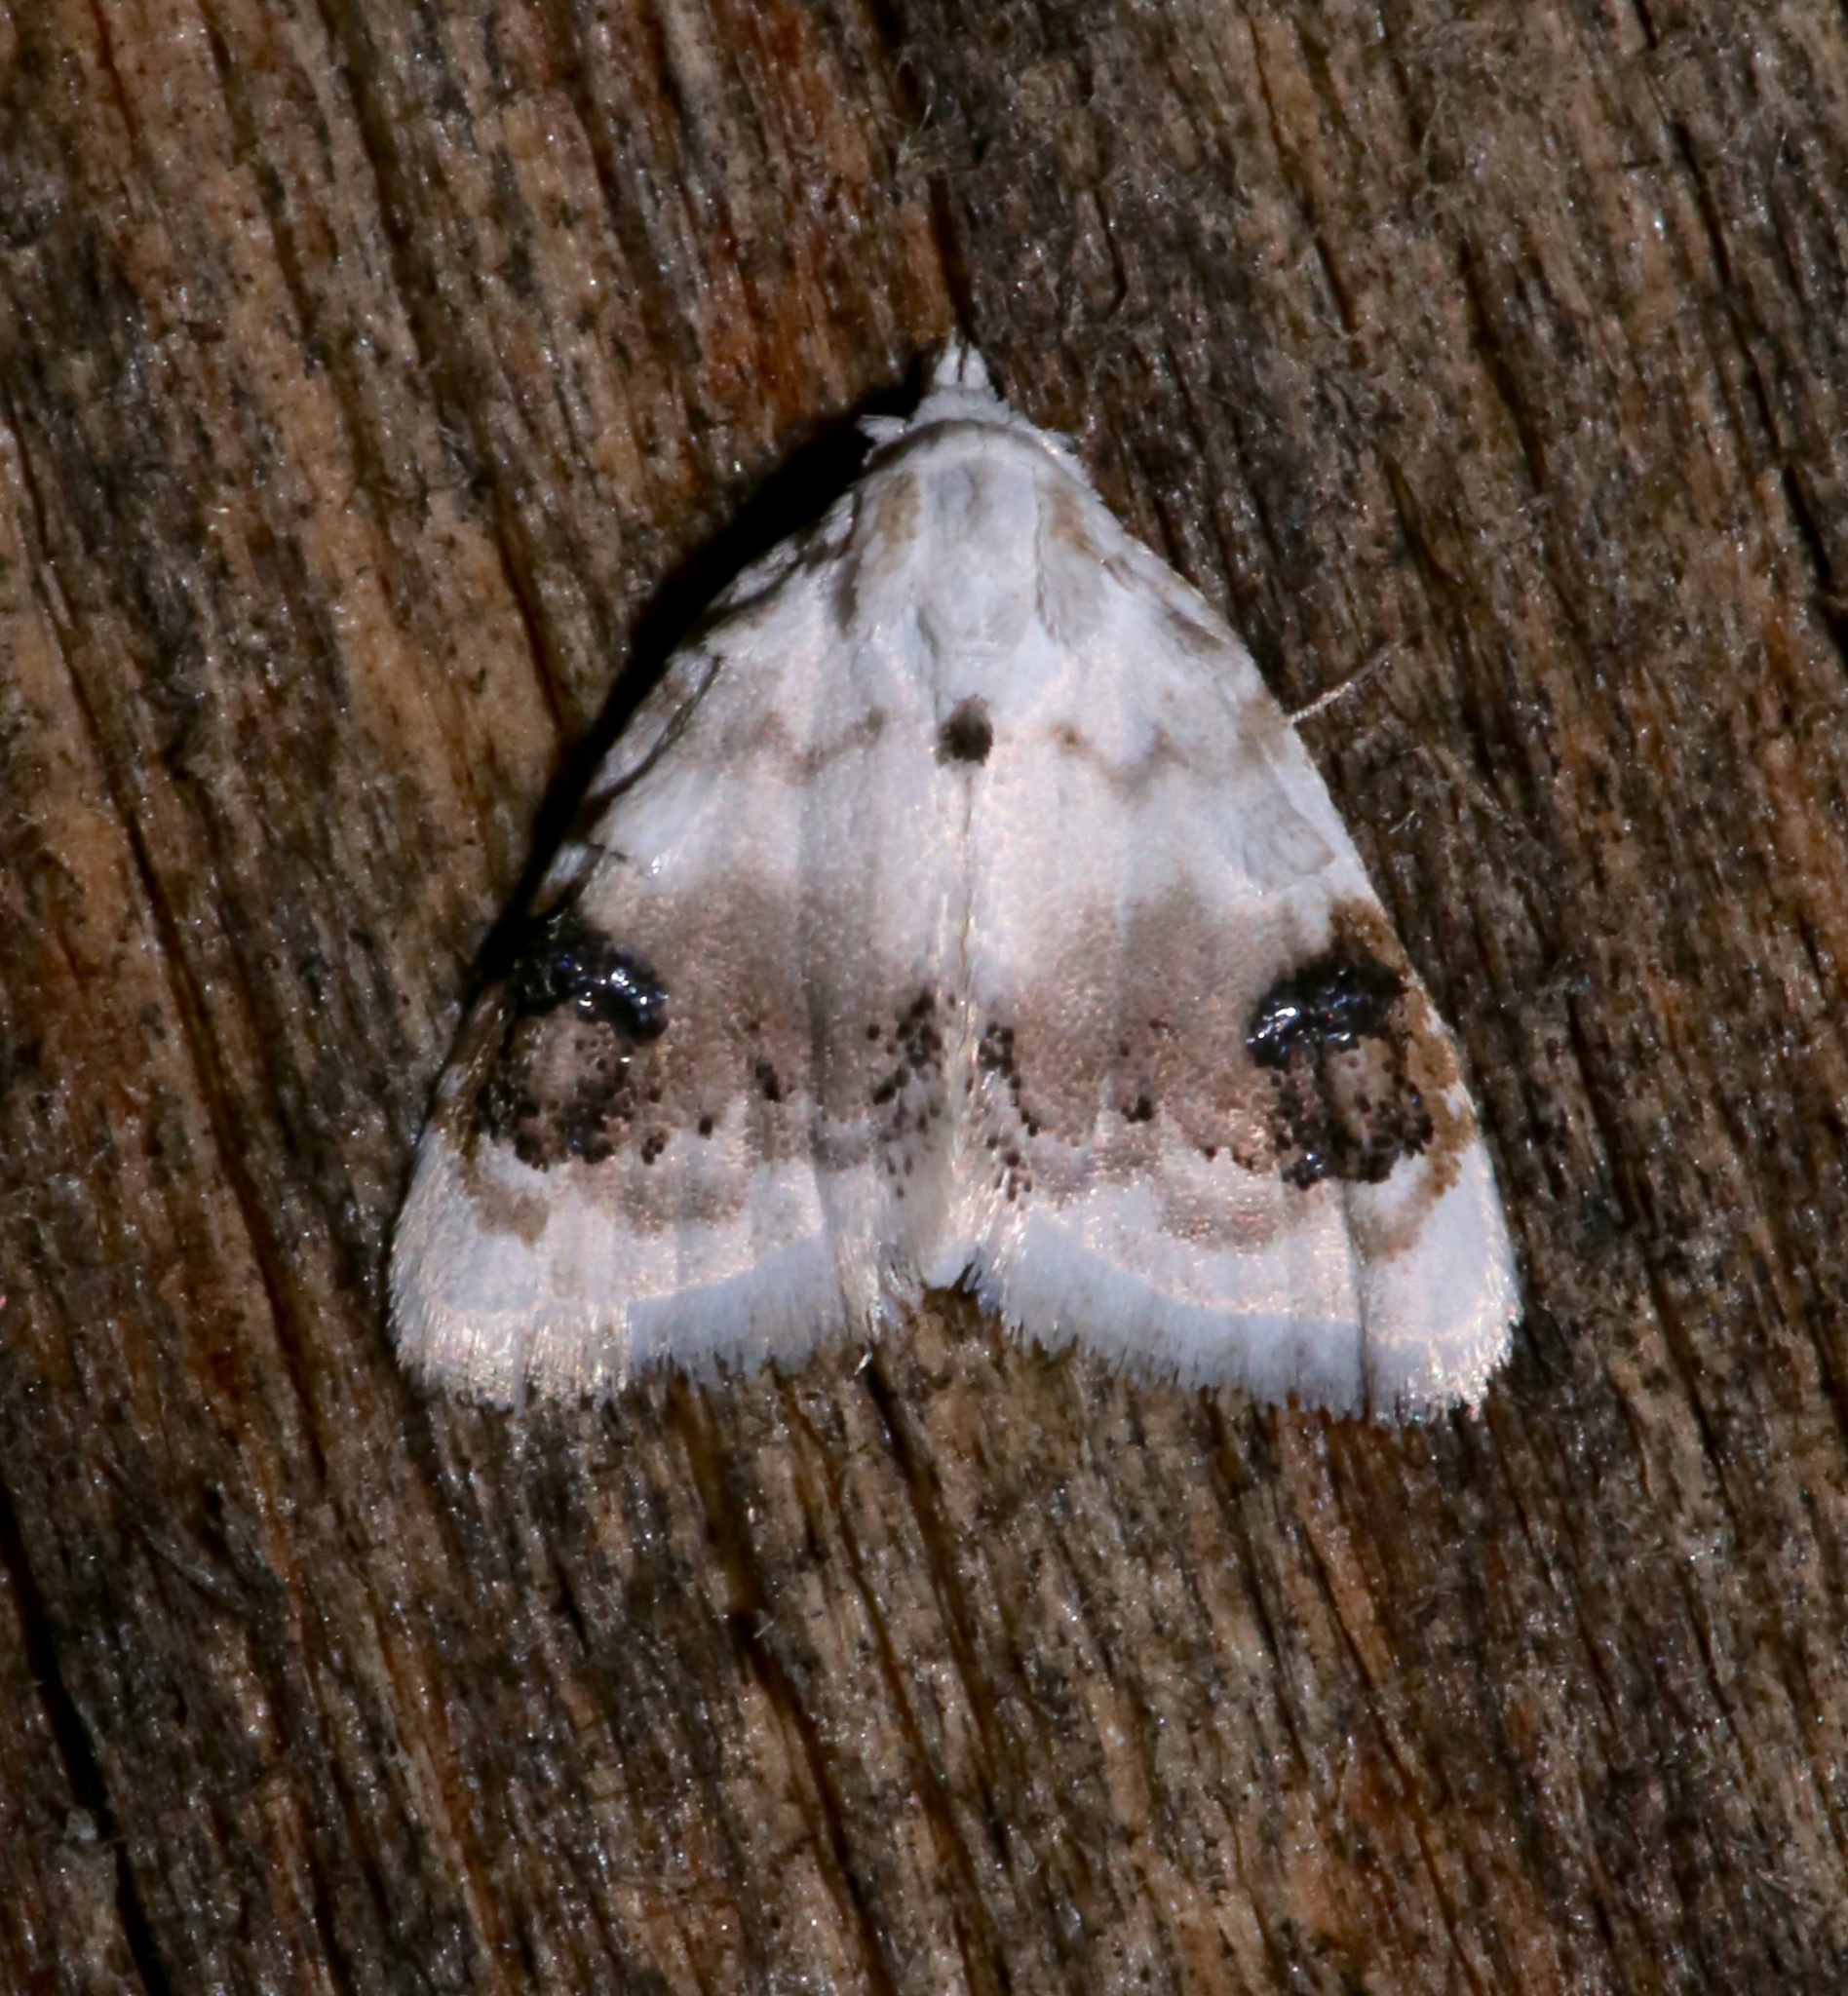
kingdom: Animalia
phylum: Arthropoda
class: Insecta
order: Lepidoptera
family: Nolidae
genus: Nola
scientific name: Nola cilicoides
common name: Blurry-patched nola moth
